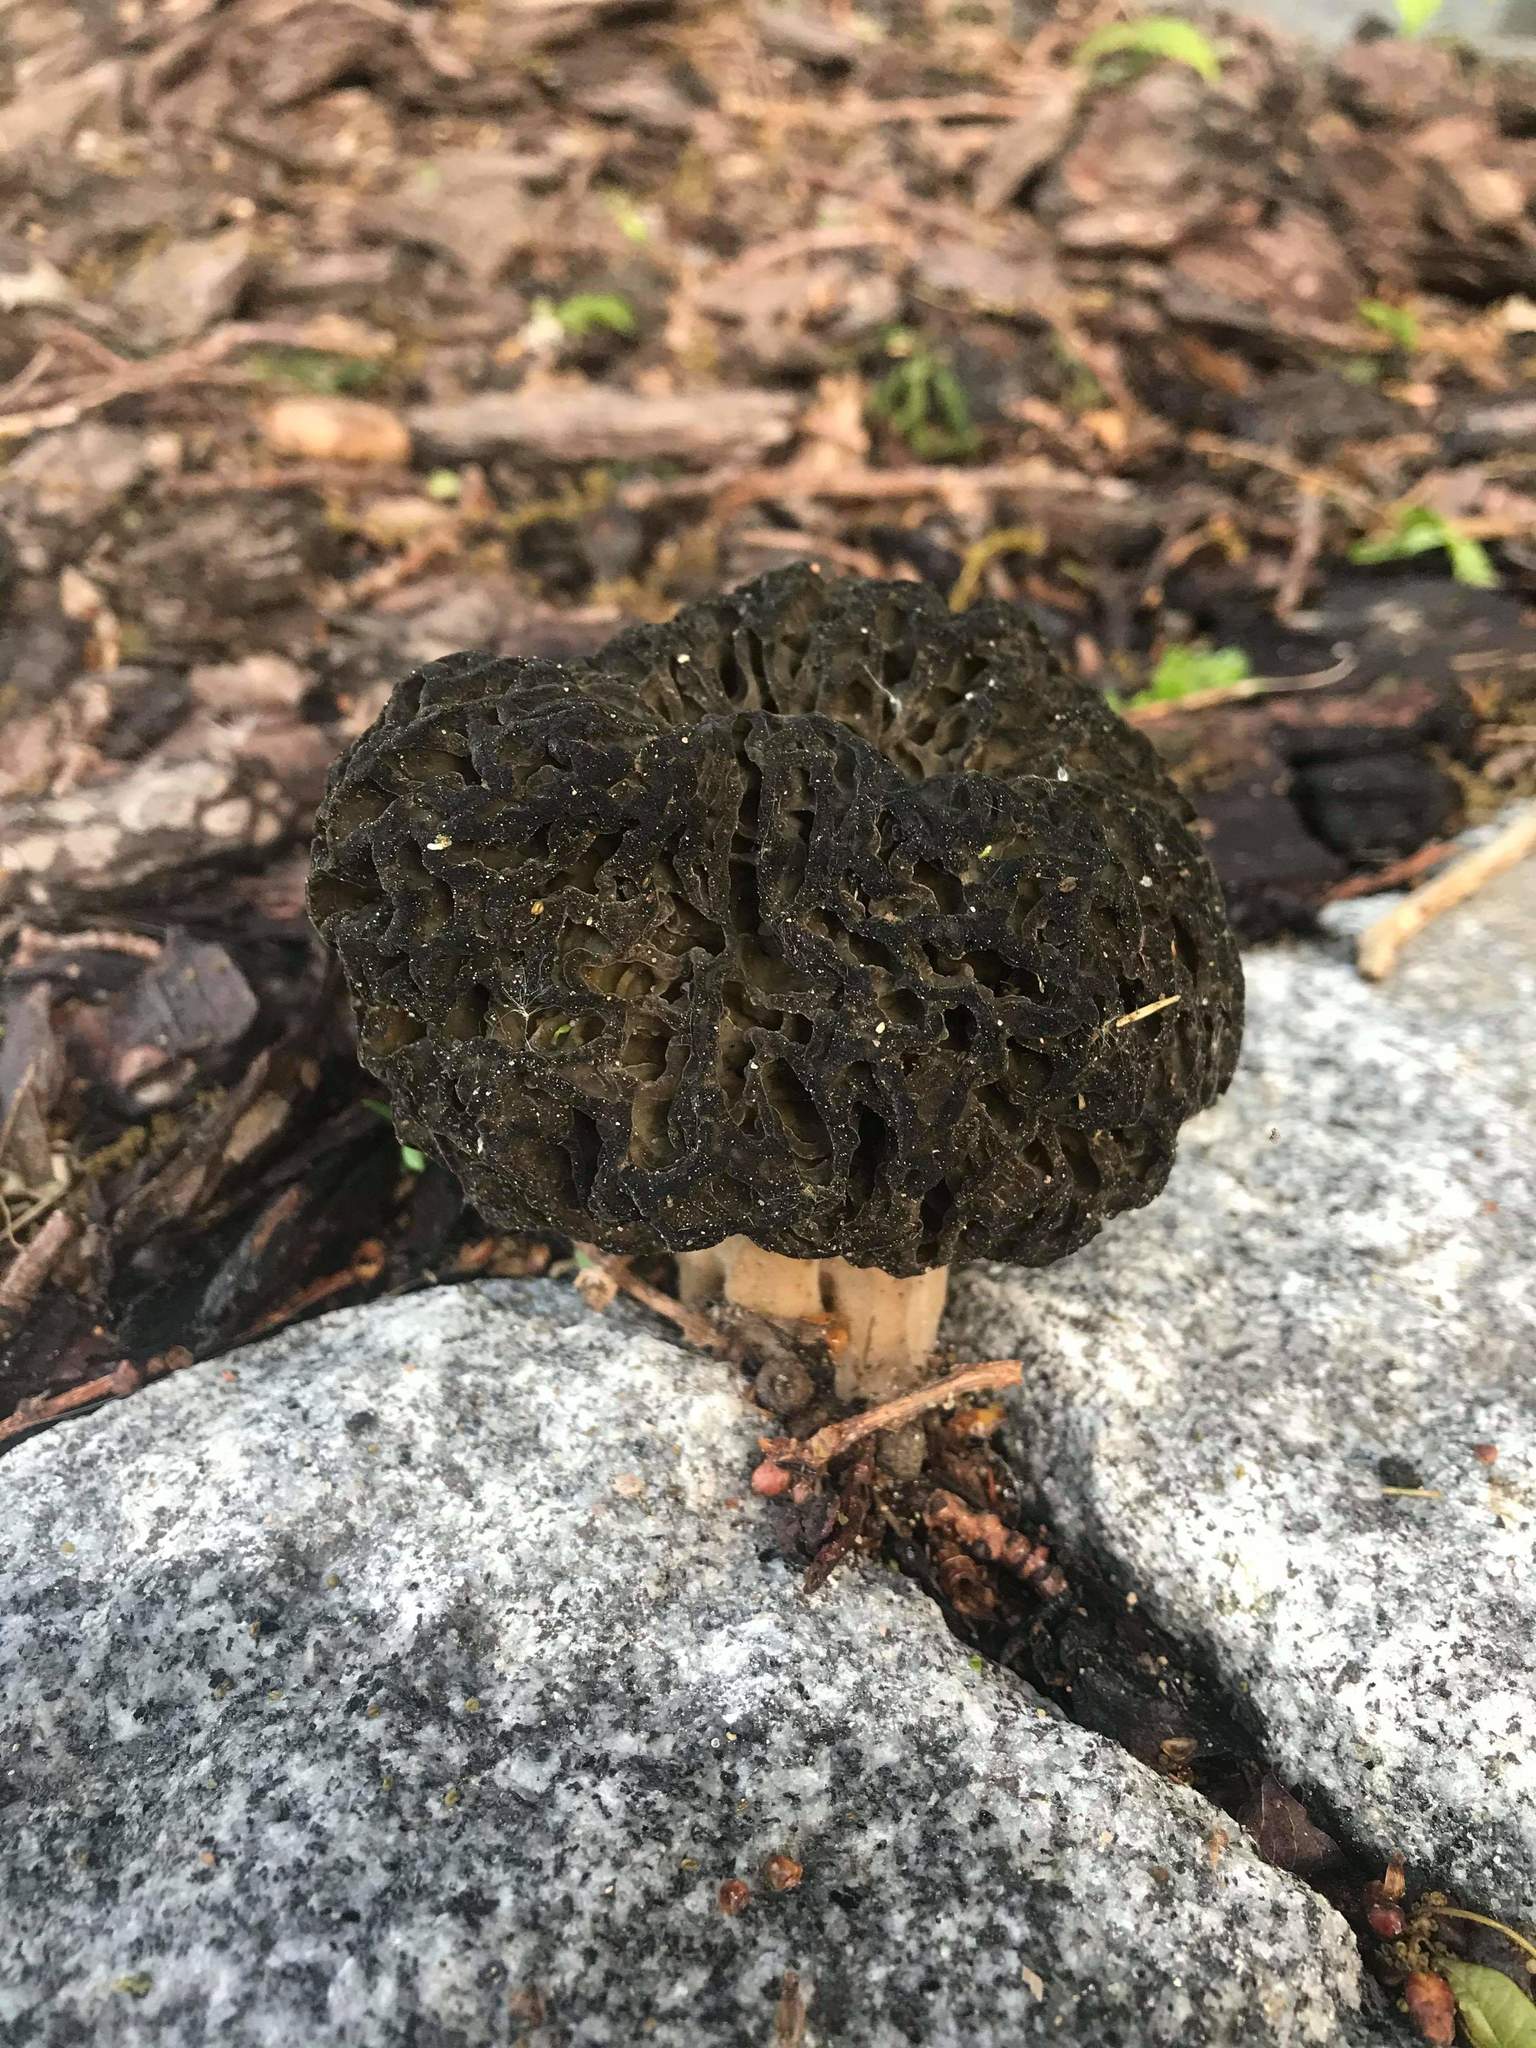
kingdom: Fungi
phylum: Ascomycota
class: Pezizomycetes
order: Pezizales
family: Morchellaceae
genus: Morchella
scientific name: Morchella elata
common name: Black morel
